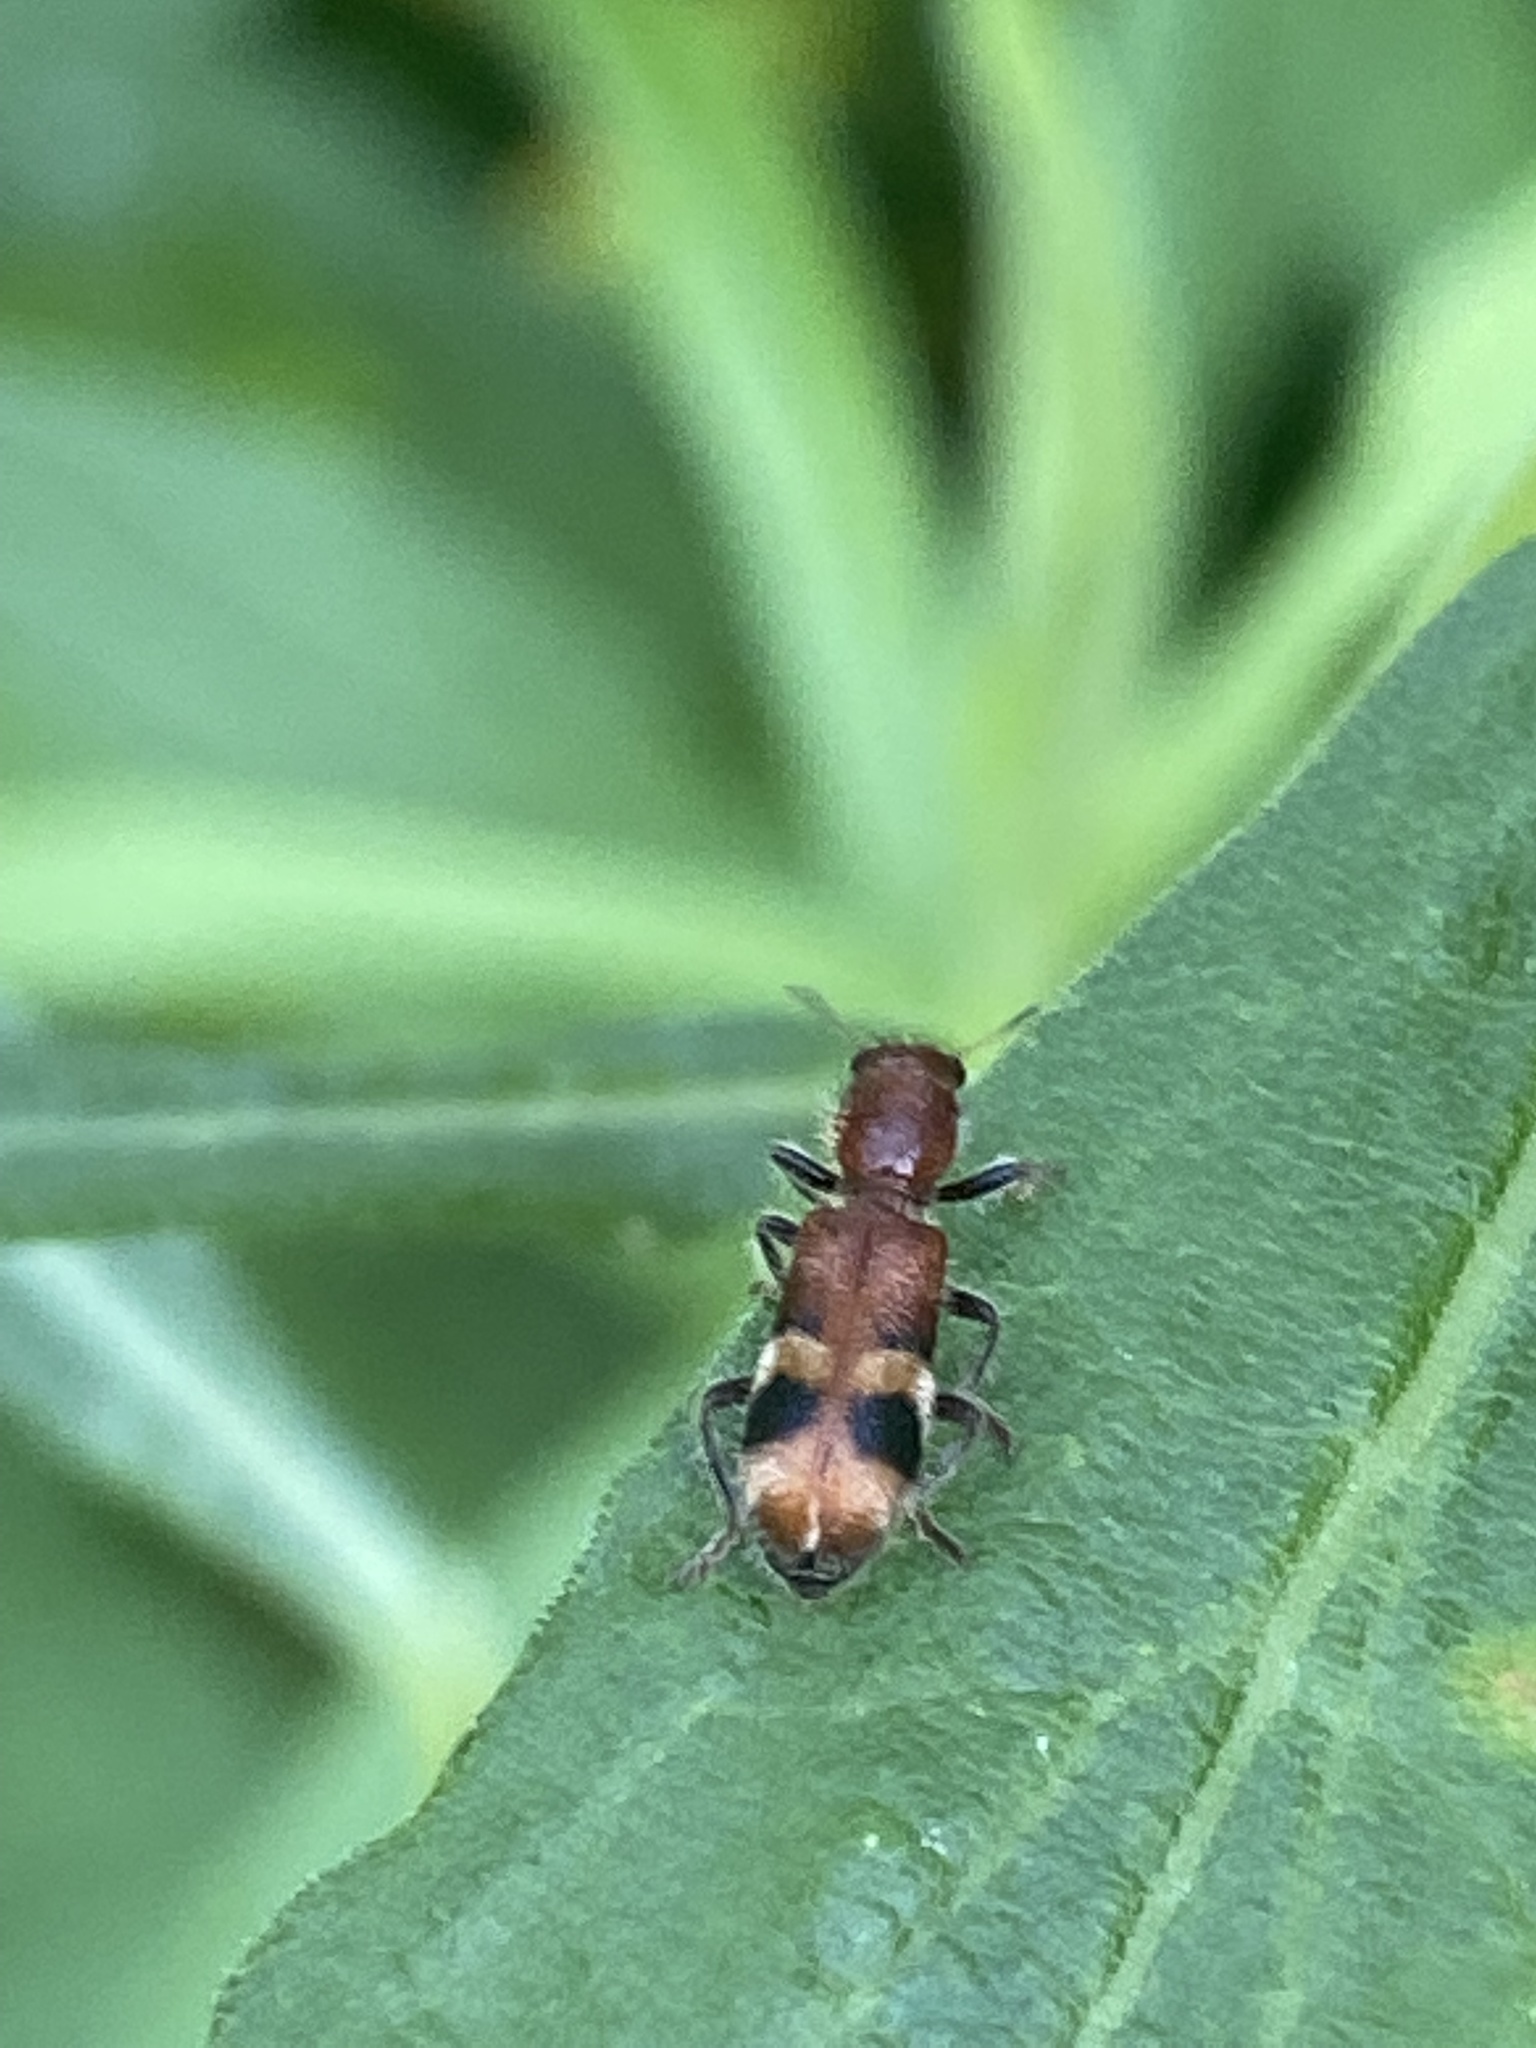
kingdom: Animalia
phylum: Arthropoda
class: Insecta
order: Coleoptera
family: Cleridae
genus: Enoclerus
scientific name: Enoclerus rosmarus
